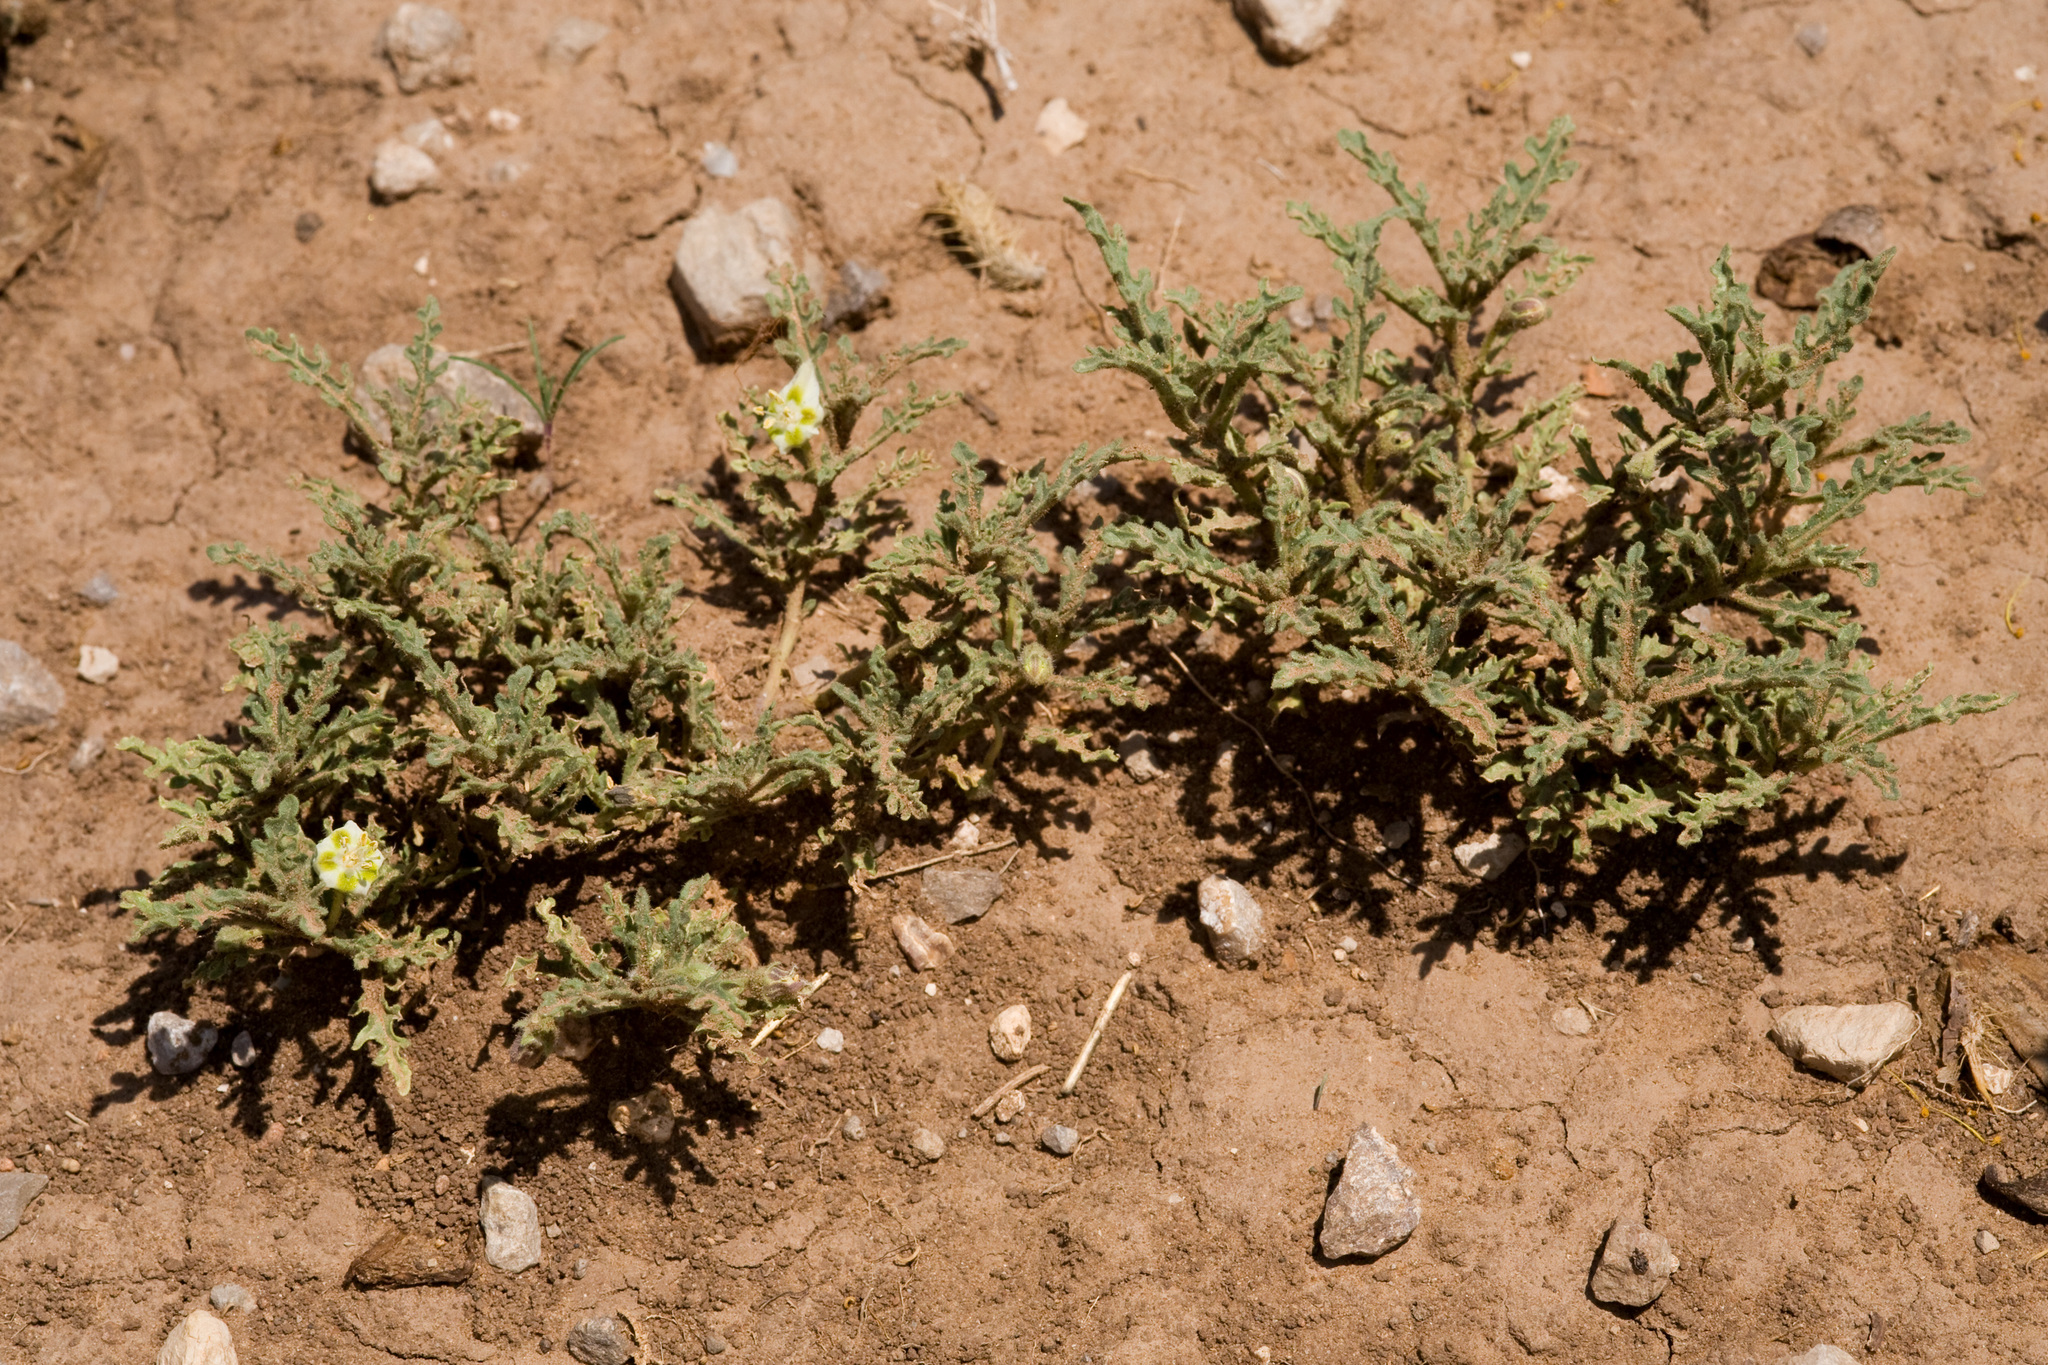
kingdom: Plantae
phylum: Tracheophyta
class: Magnoliopsida
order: Solanales
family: Solanaceae
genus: Chamaesaracha
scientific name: Chamaesaracha coniodes
